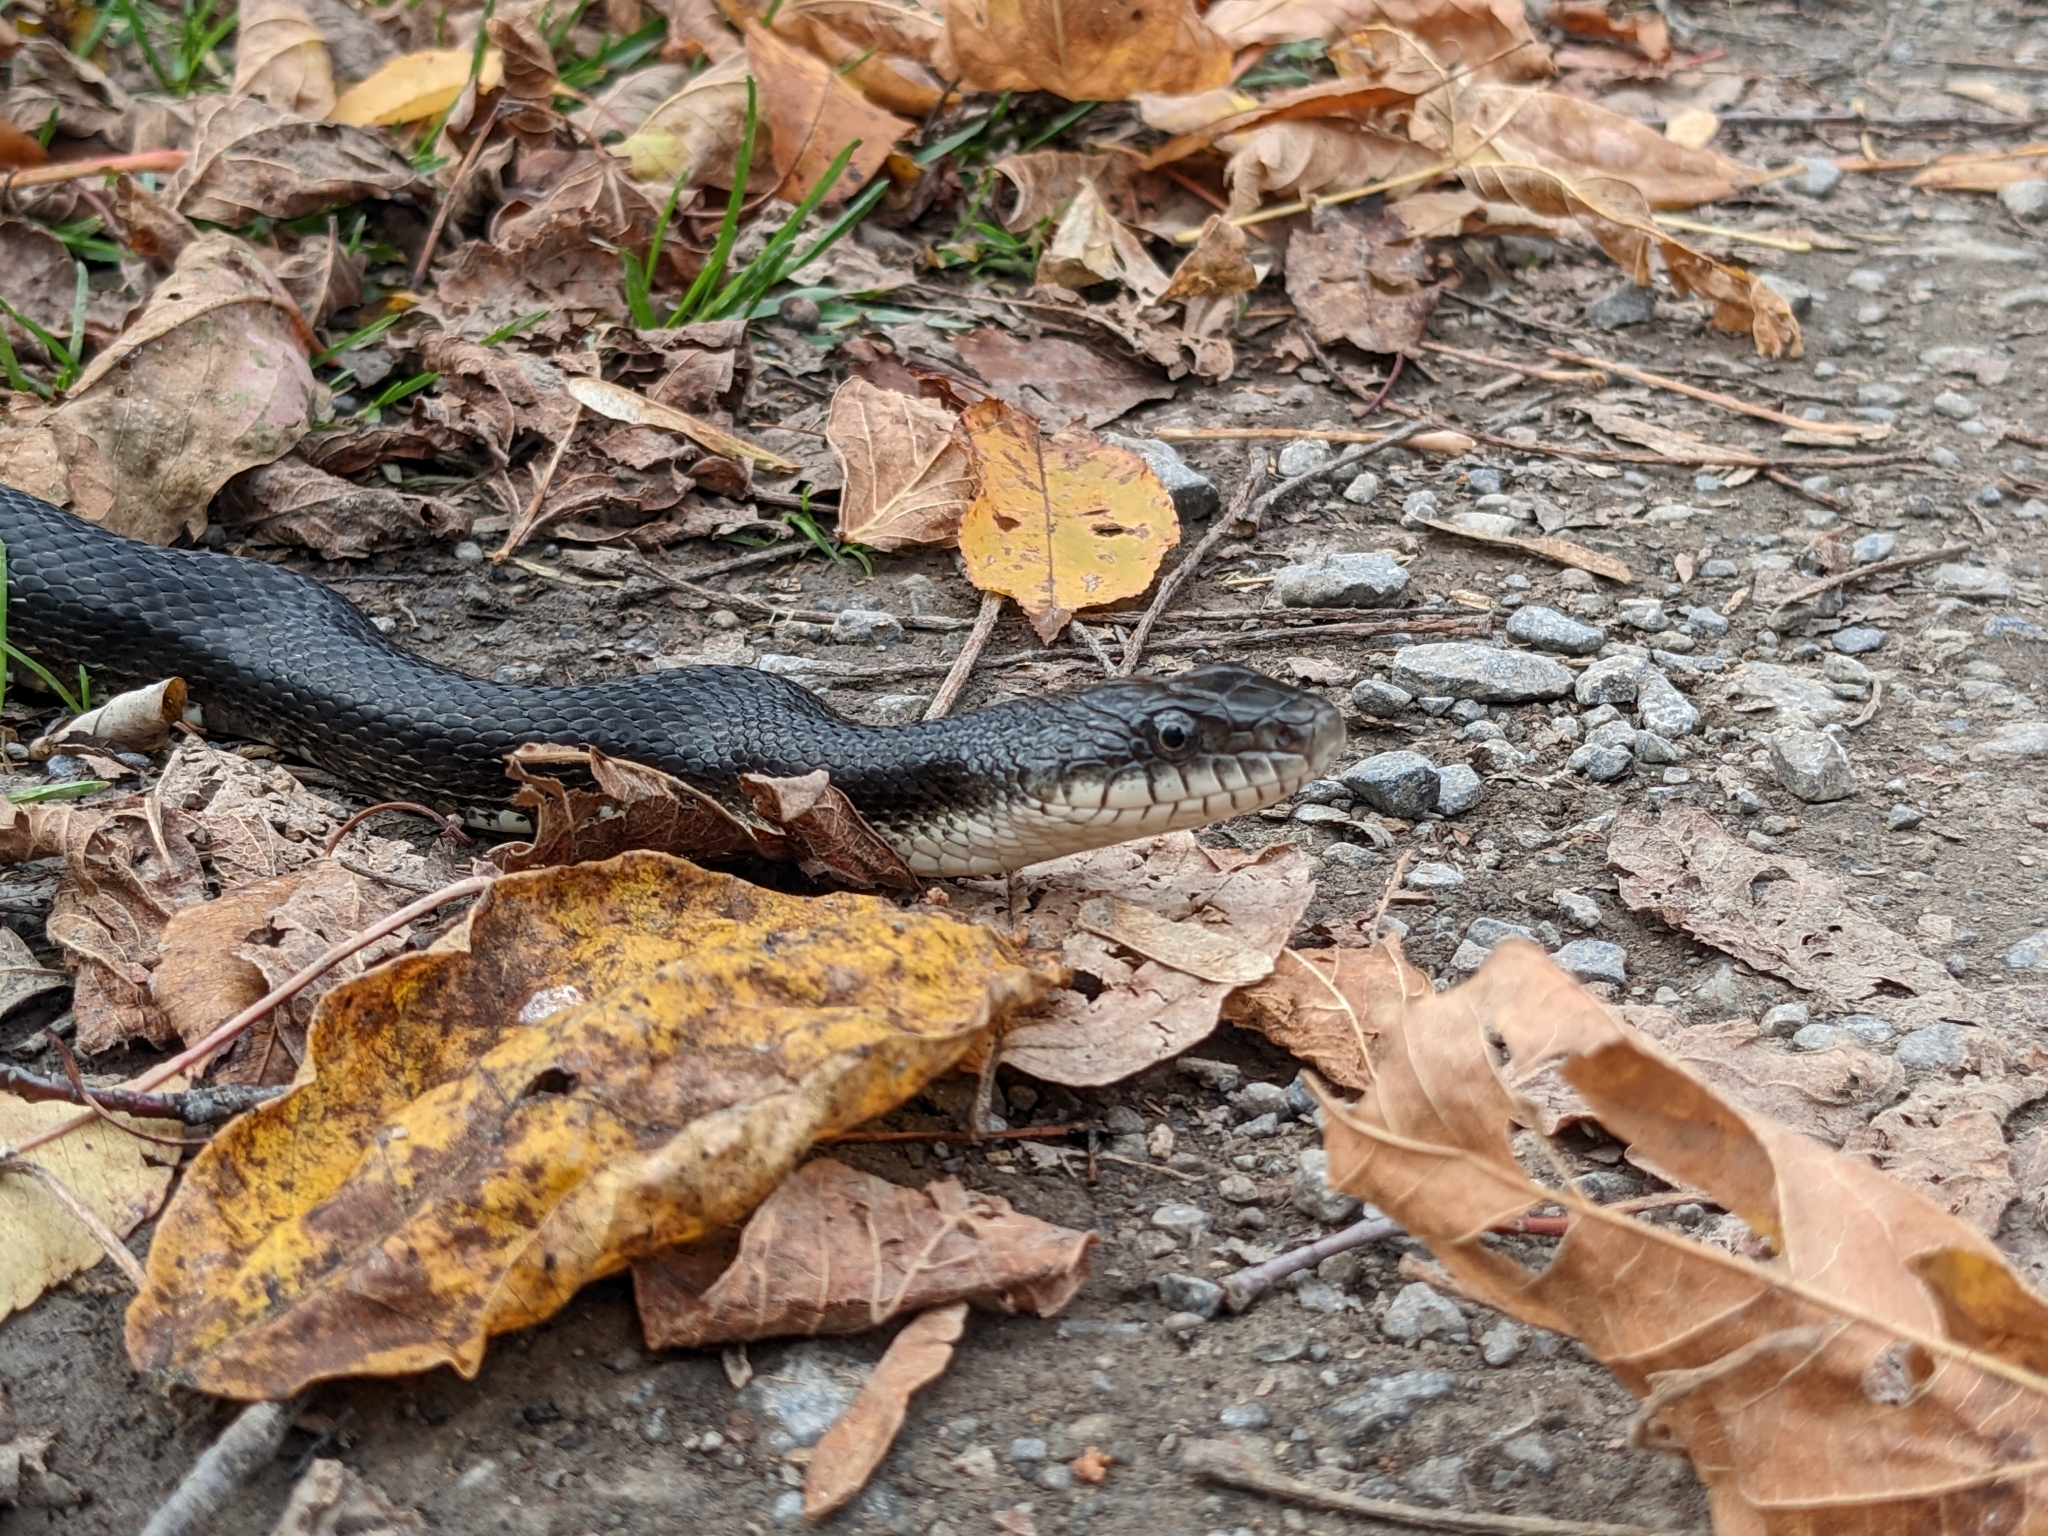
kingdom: Animalia
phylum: Chordata
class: Squamata
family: Colubridae
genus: Pantherophis
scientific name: Pantherophis
